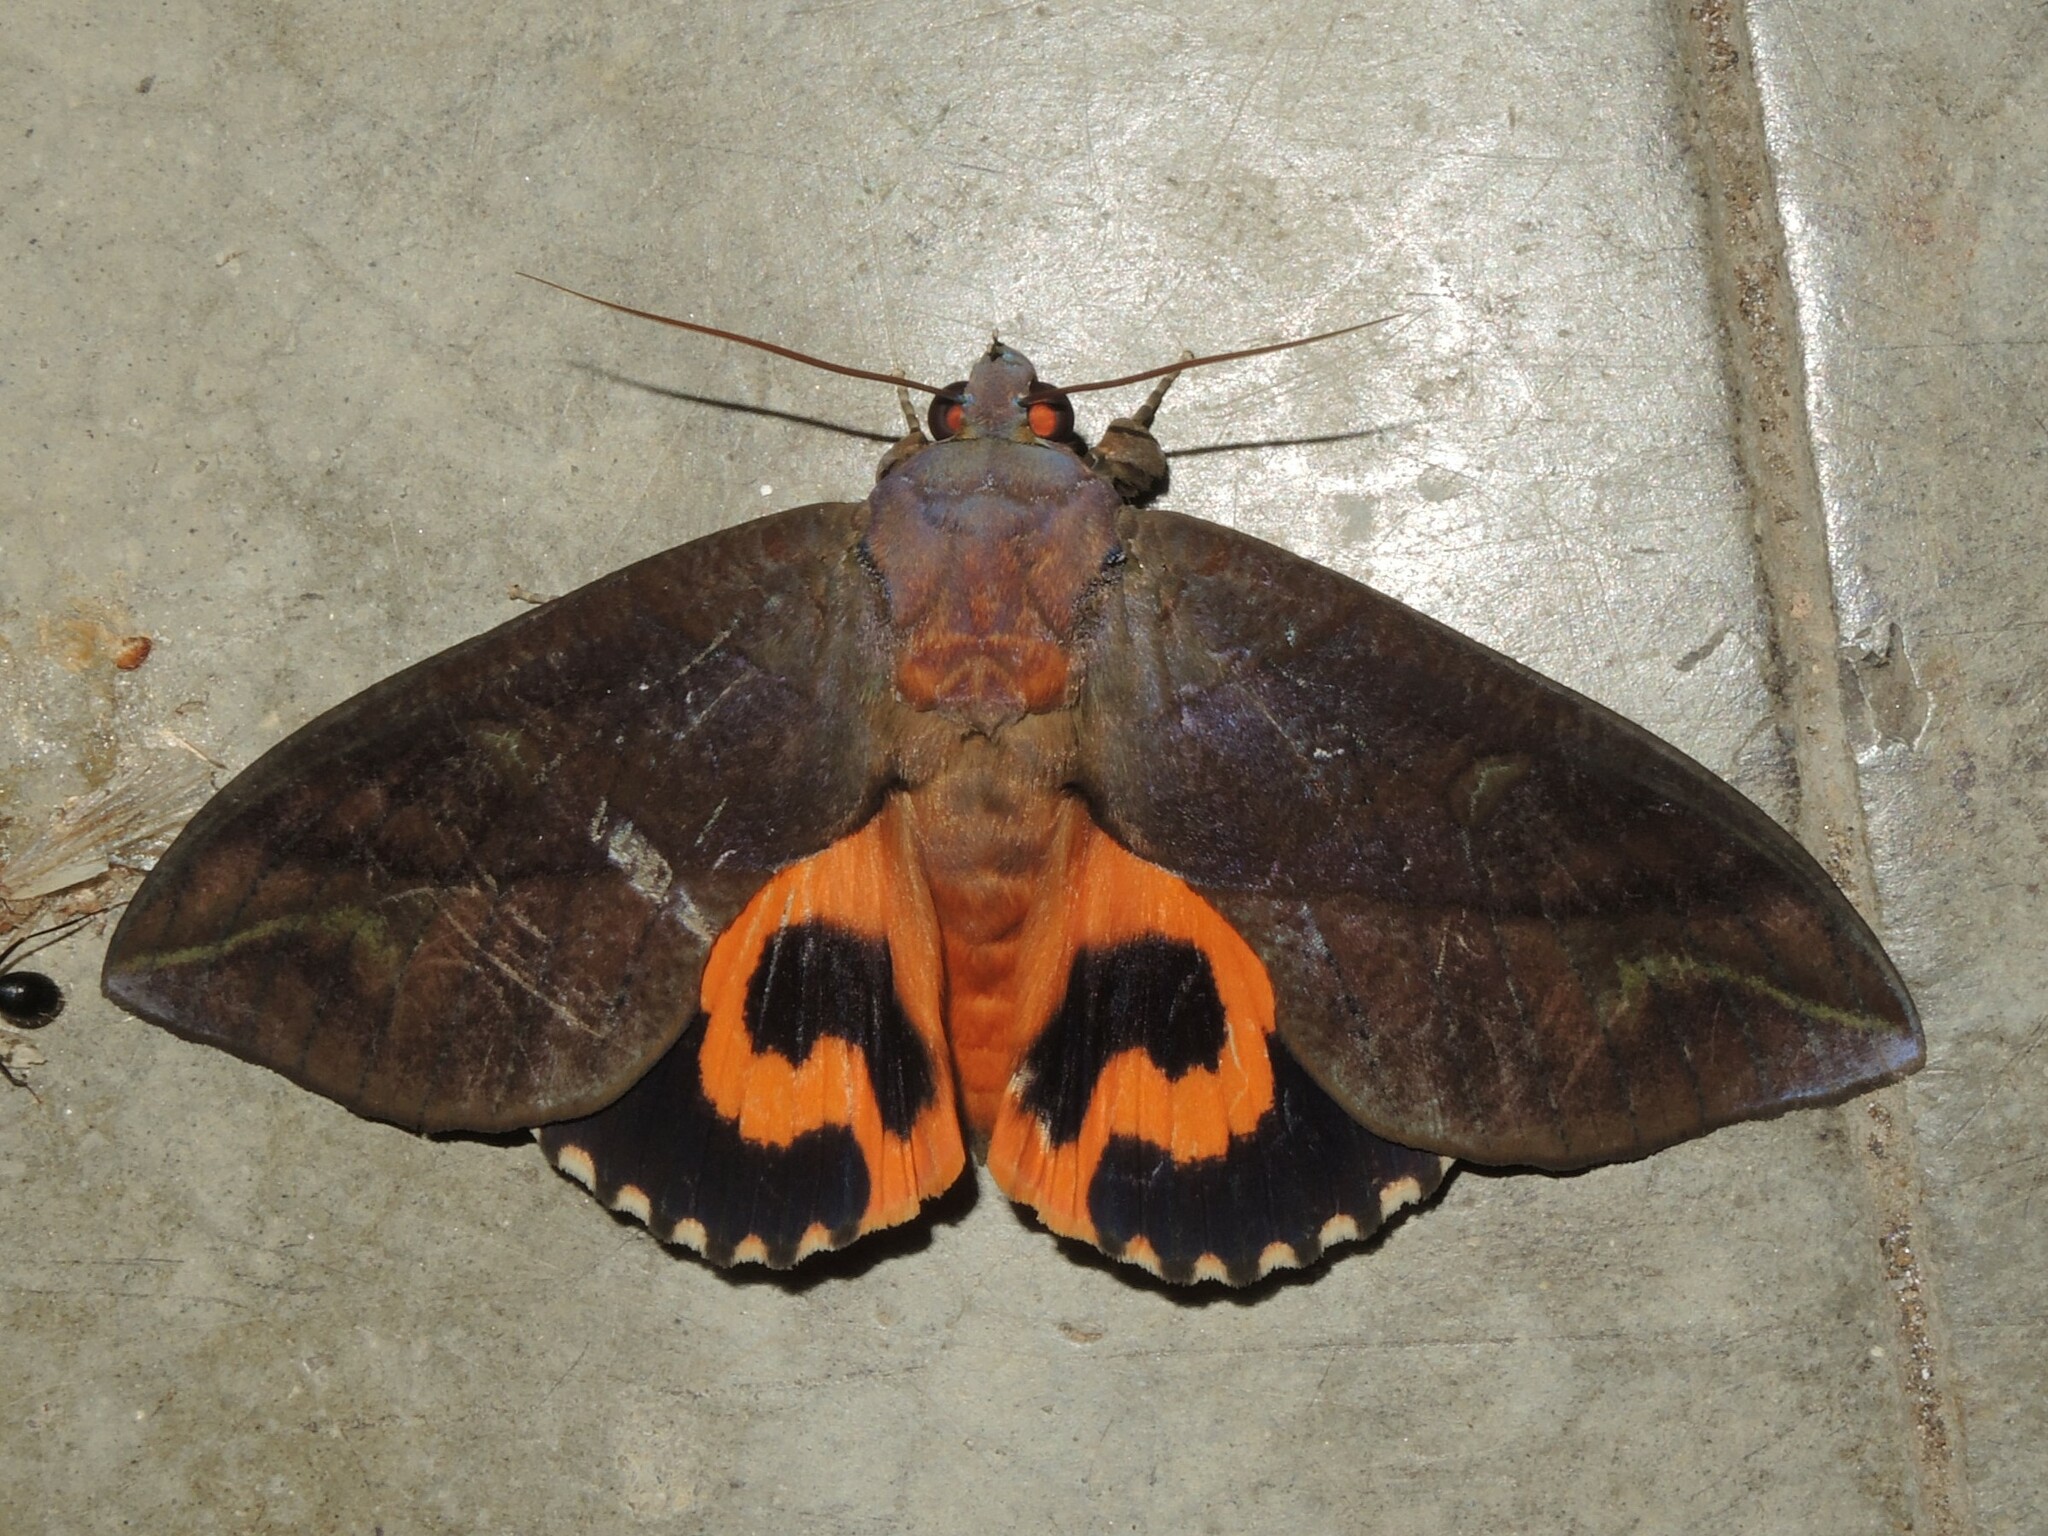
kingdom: Animalia
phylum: Arthropoda
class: Insecta
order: Lepidoptera
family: Erebidae
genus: Eudocima
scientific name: Eudocima phalonia
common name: Wasp
